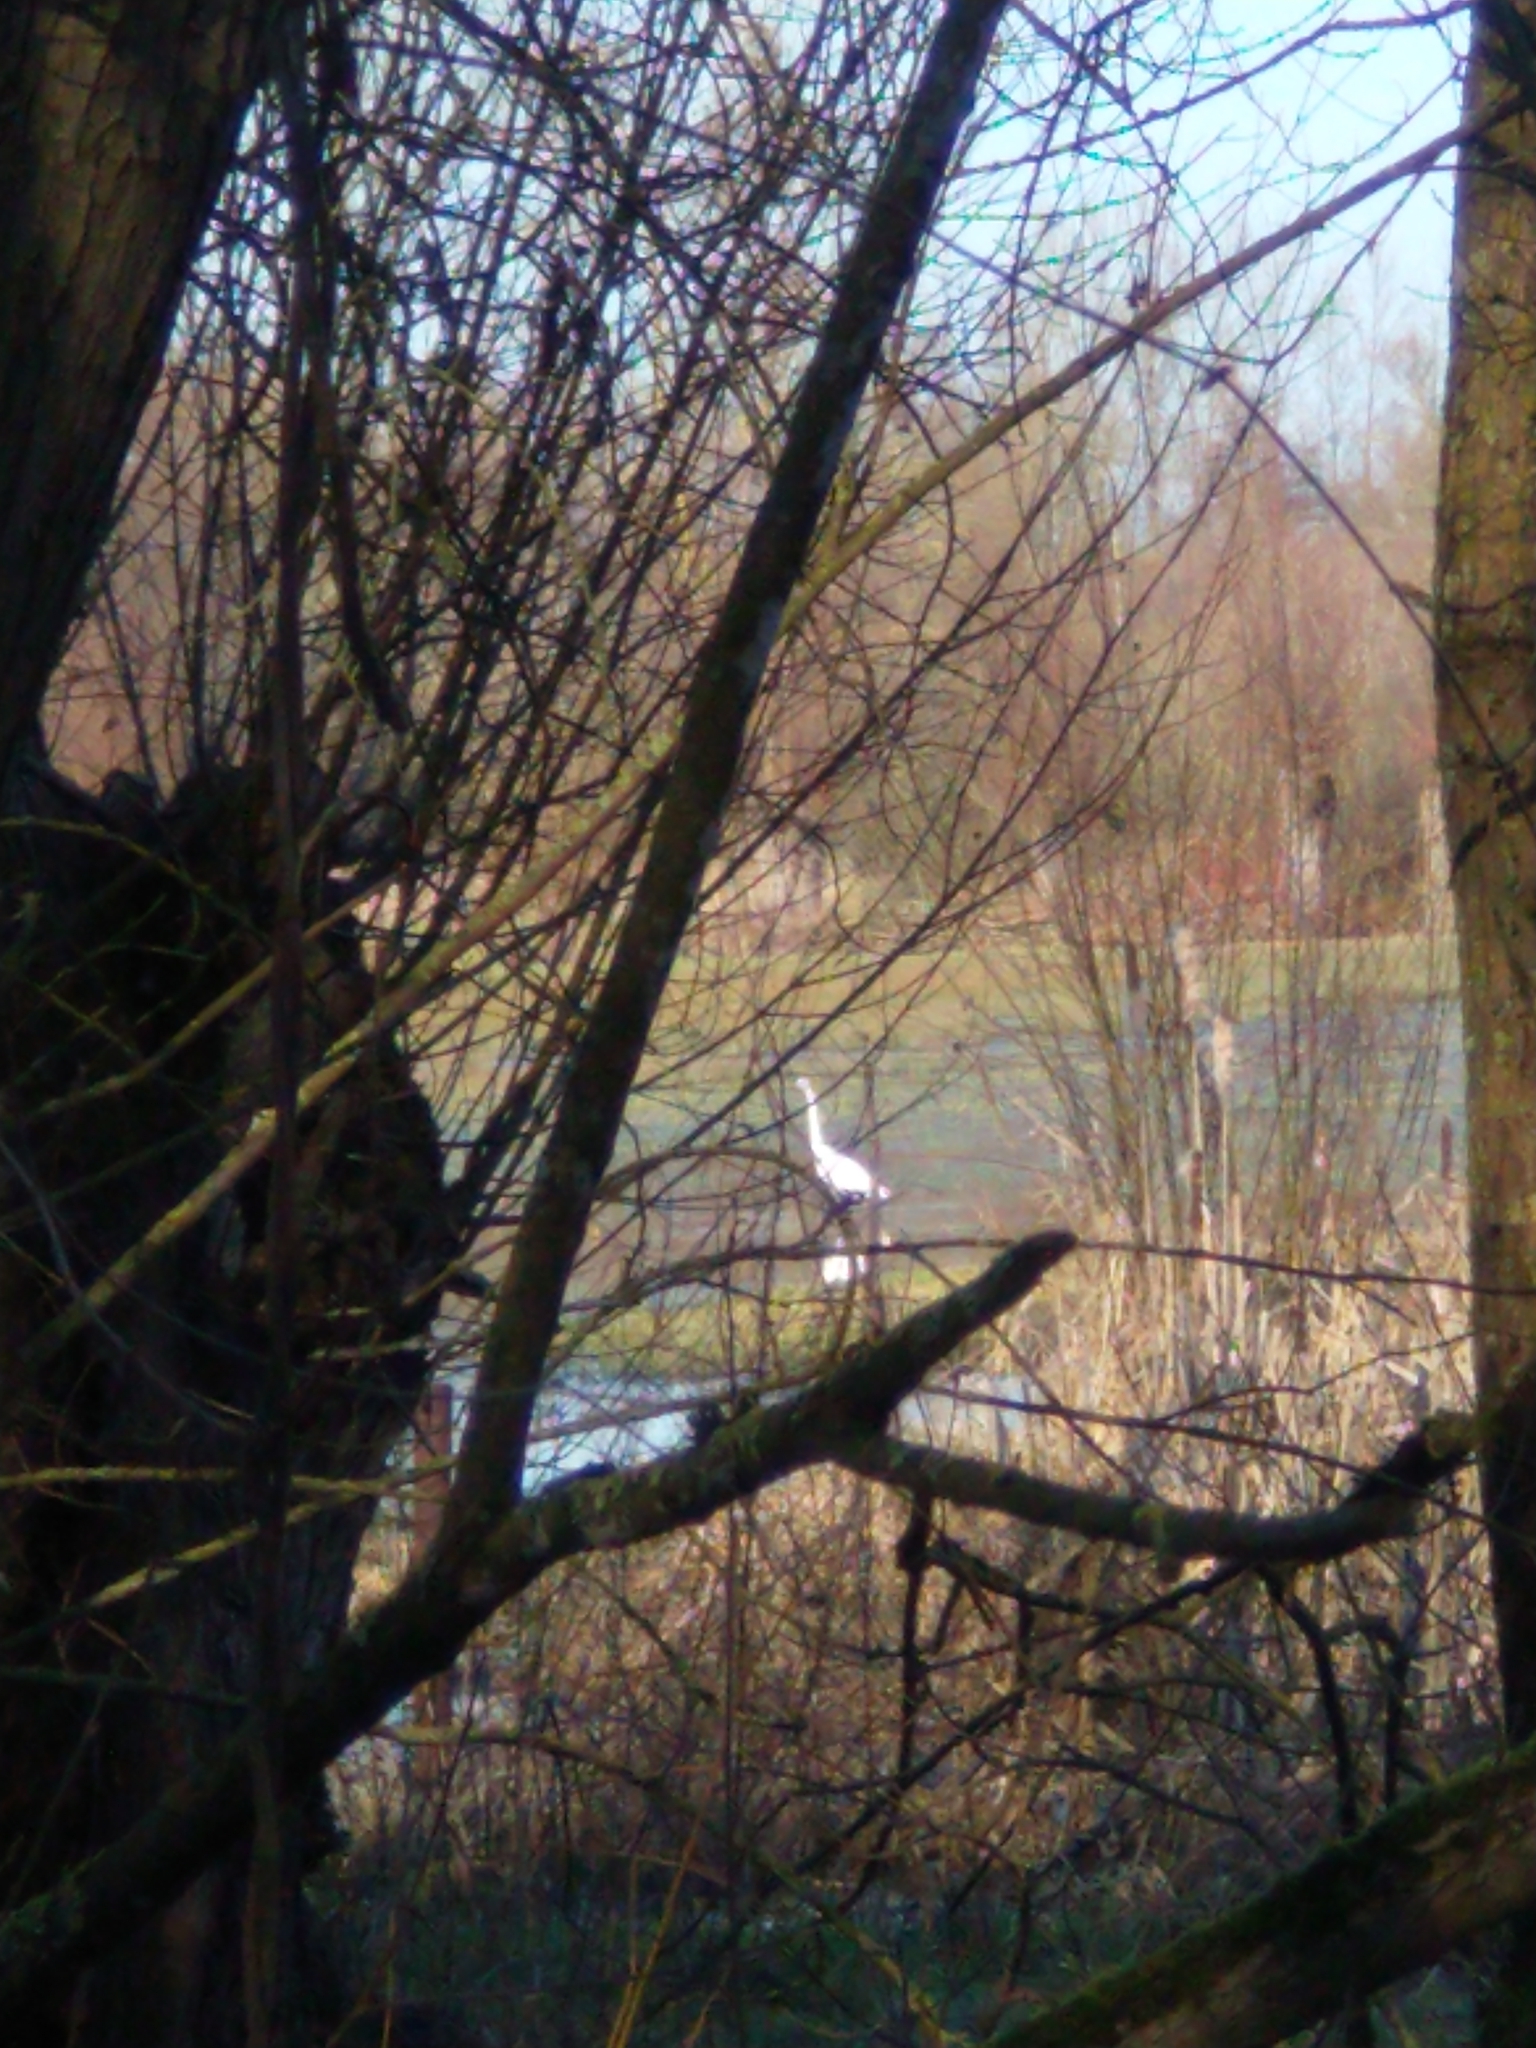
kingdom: Animalia
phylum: Chordata
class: Aves
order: Pelecaniformes
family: Ardeidae
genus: Ardea
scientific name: Ardea alba
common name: Great egret
